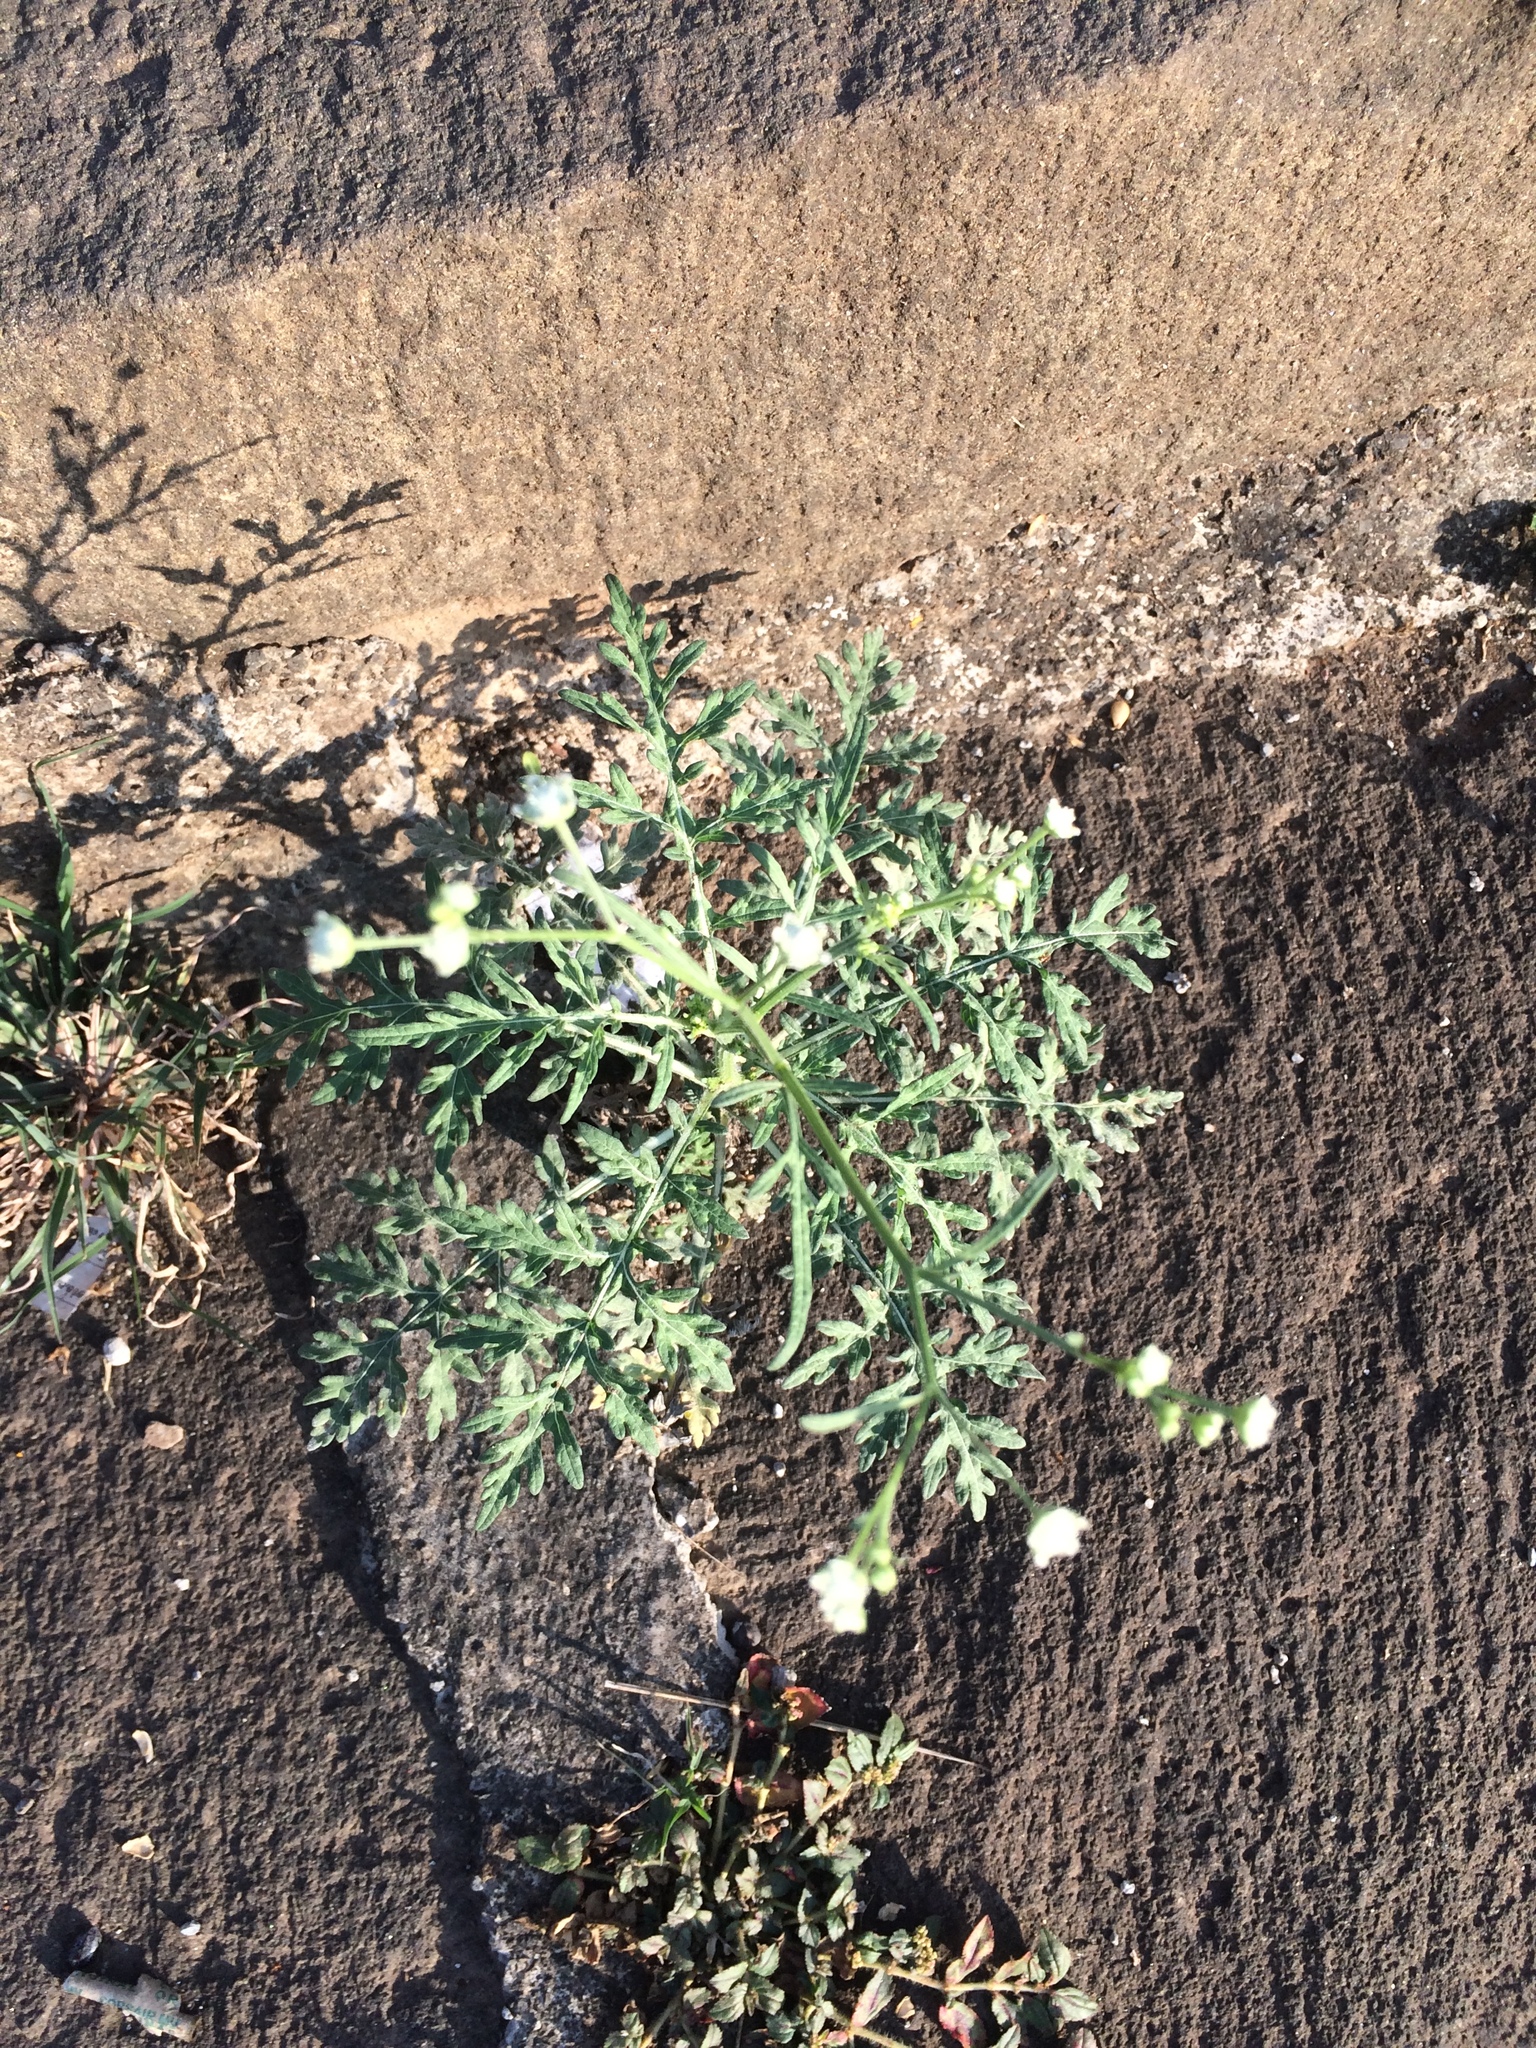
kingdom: Plantae
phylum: Tracheophyta
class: Magnoliopsida
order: Asterales
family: Asteraceae
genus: Parthenium
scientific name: Parthenium hysterophorus
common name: Santa maria feverfew
